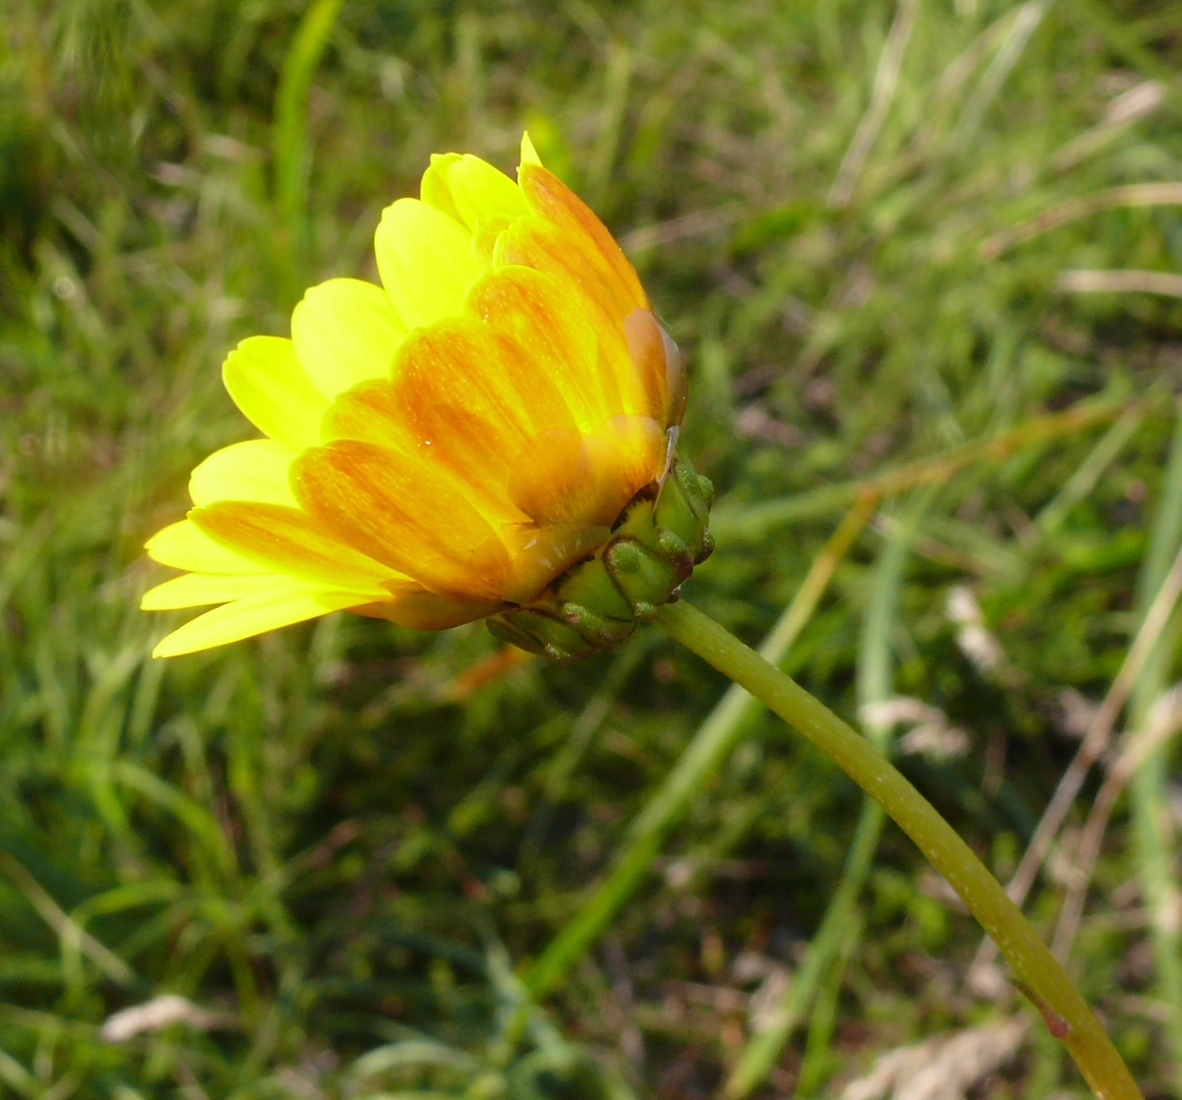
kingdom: Plantae
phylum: Tracheophyta
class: Magnoliopsida
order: Asterales
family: Asteraceae
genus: Ursinia
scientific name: Ursinia paleacea
